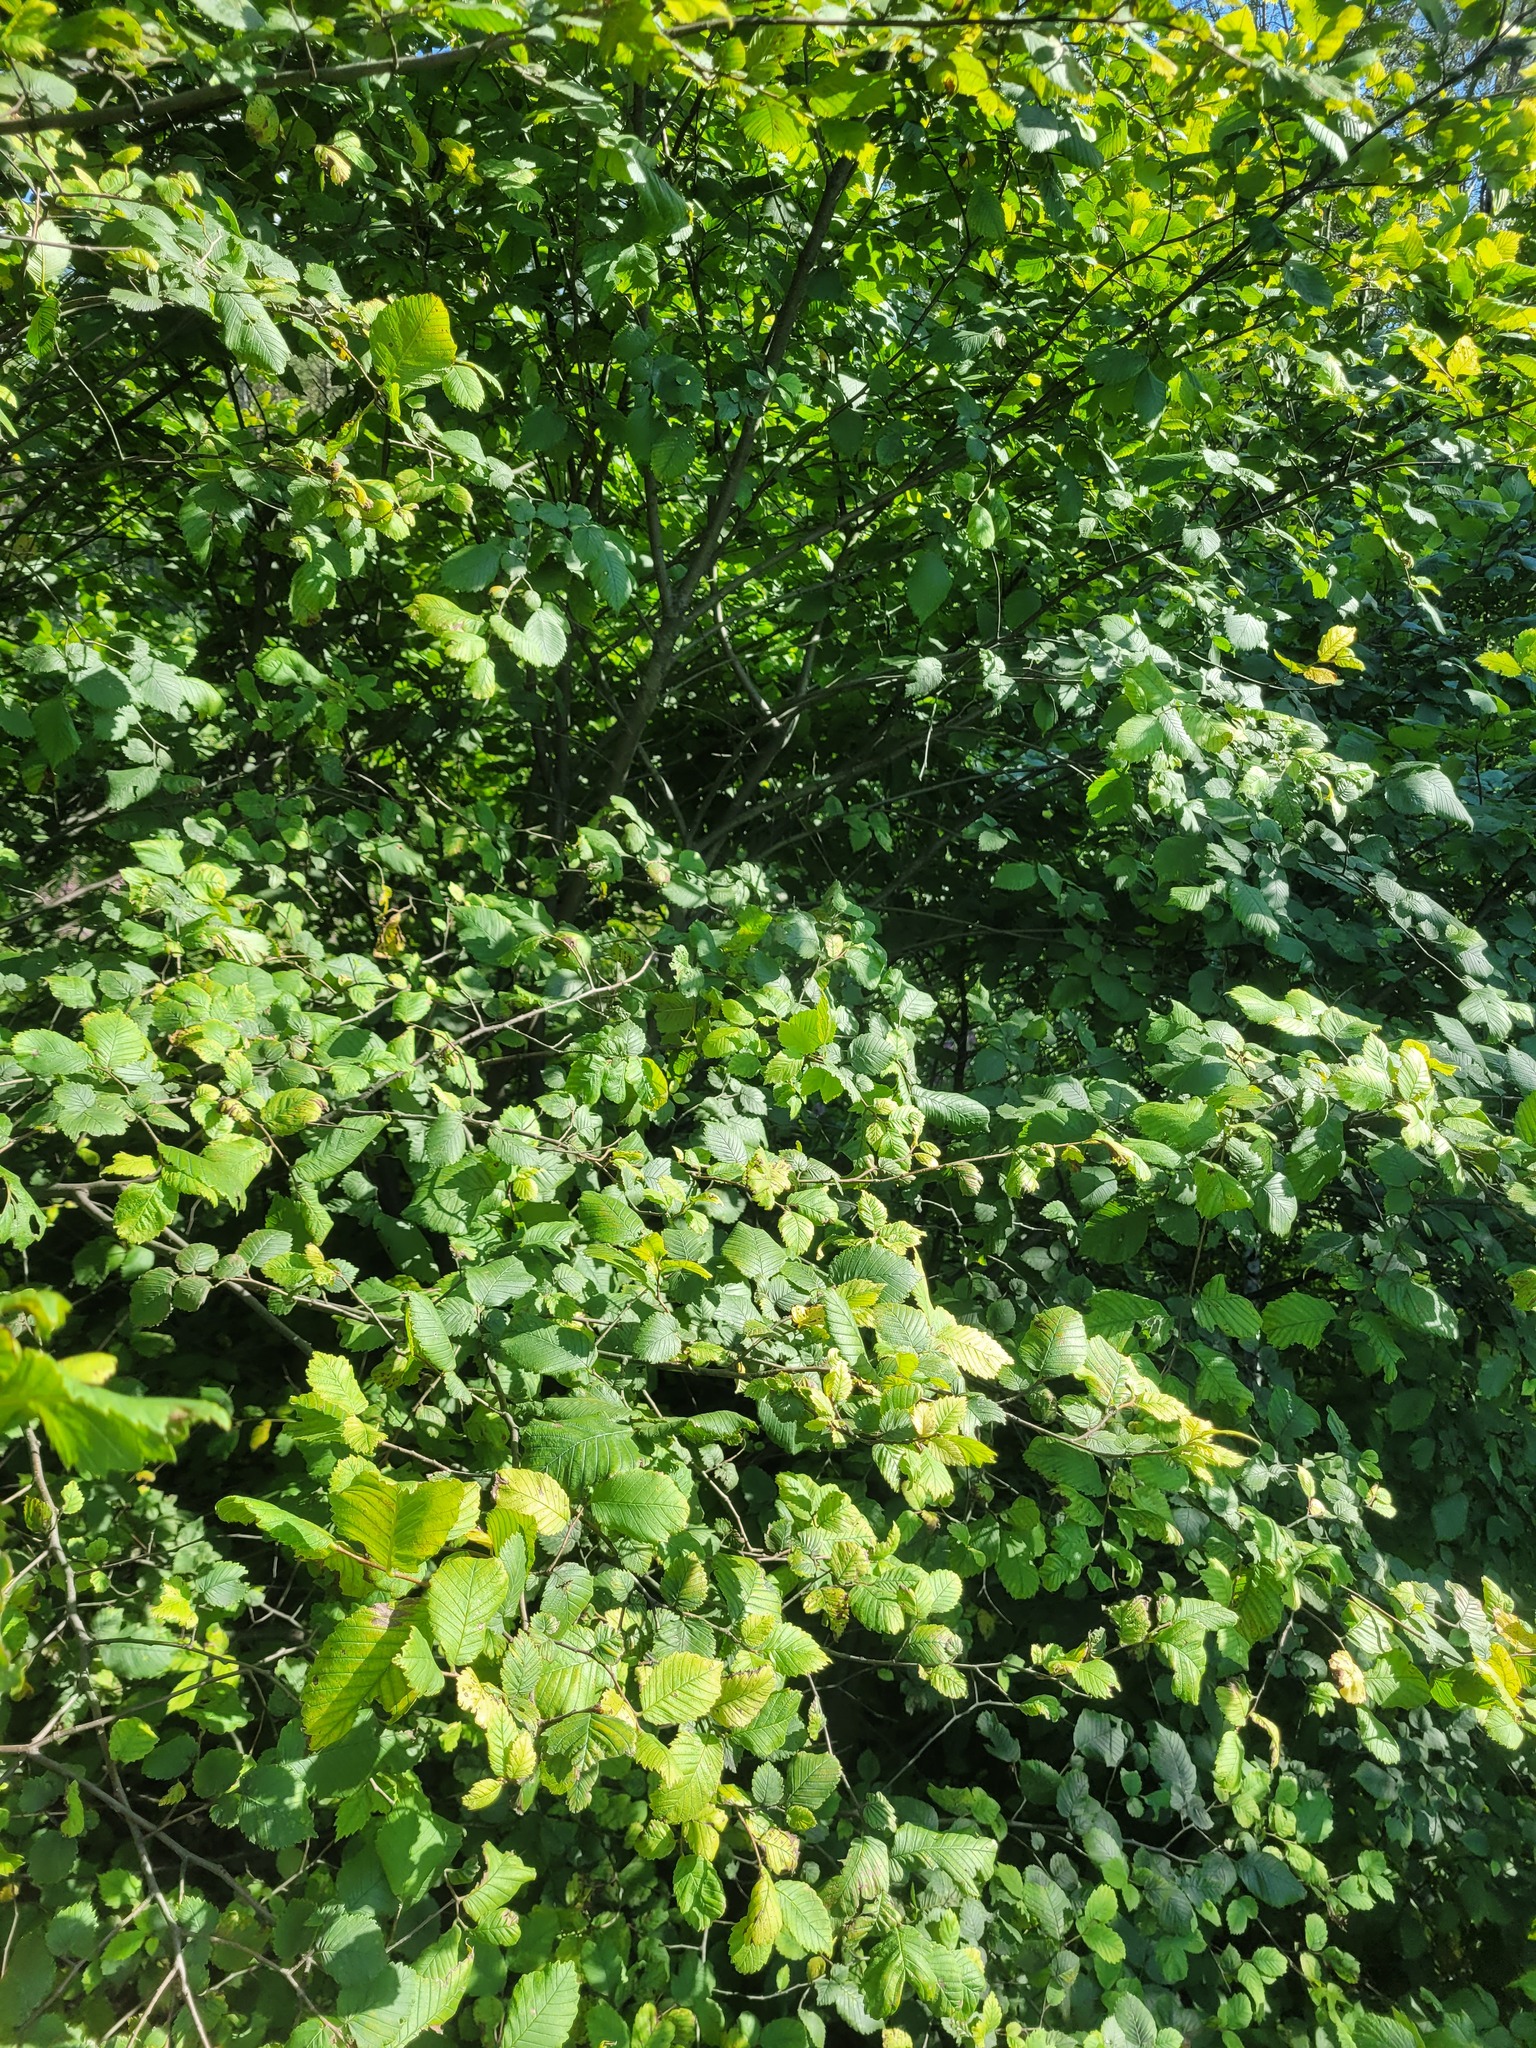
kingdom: Plantae
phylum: Tracheophyta
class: Magnoliopsida
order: Rosales
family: Ulmaceae
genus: Ulmus
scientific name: Ulmus laevis
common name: European white-elm
